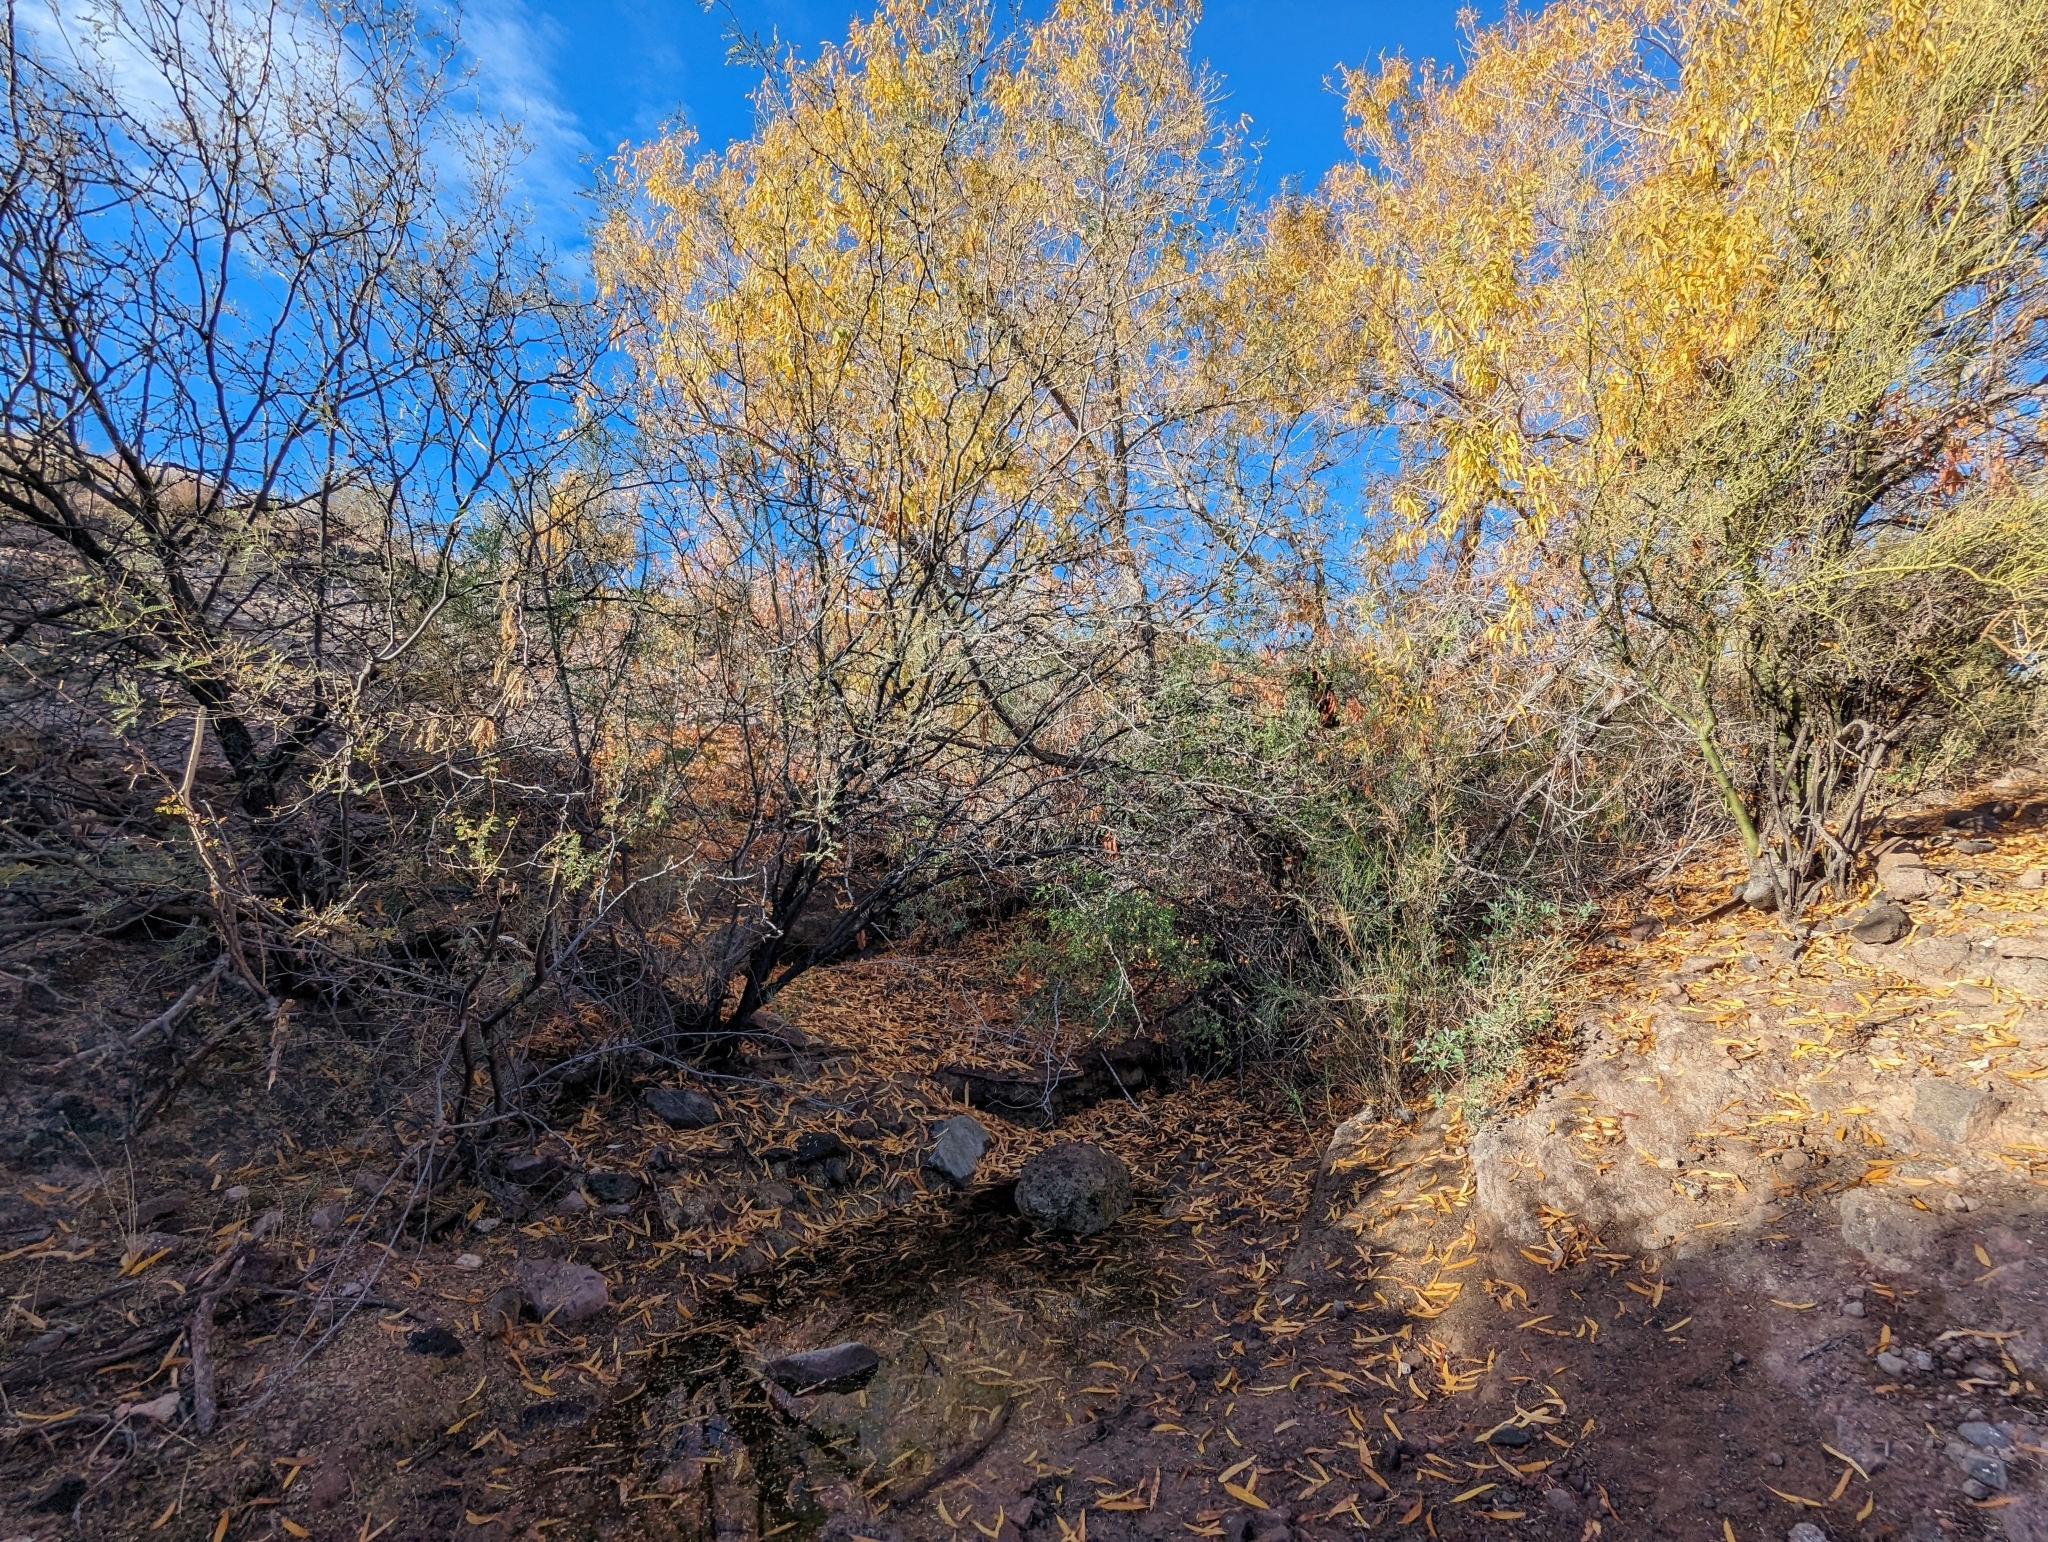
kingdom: Plantae
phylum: Tracheophyta
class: Magnoliopsida
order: Malpighiales
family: Salicaceae
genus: Salix
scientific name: Salix gooddingii
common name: Goodding's willow
